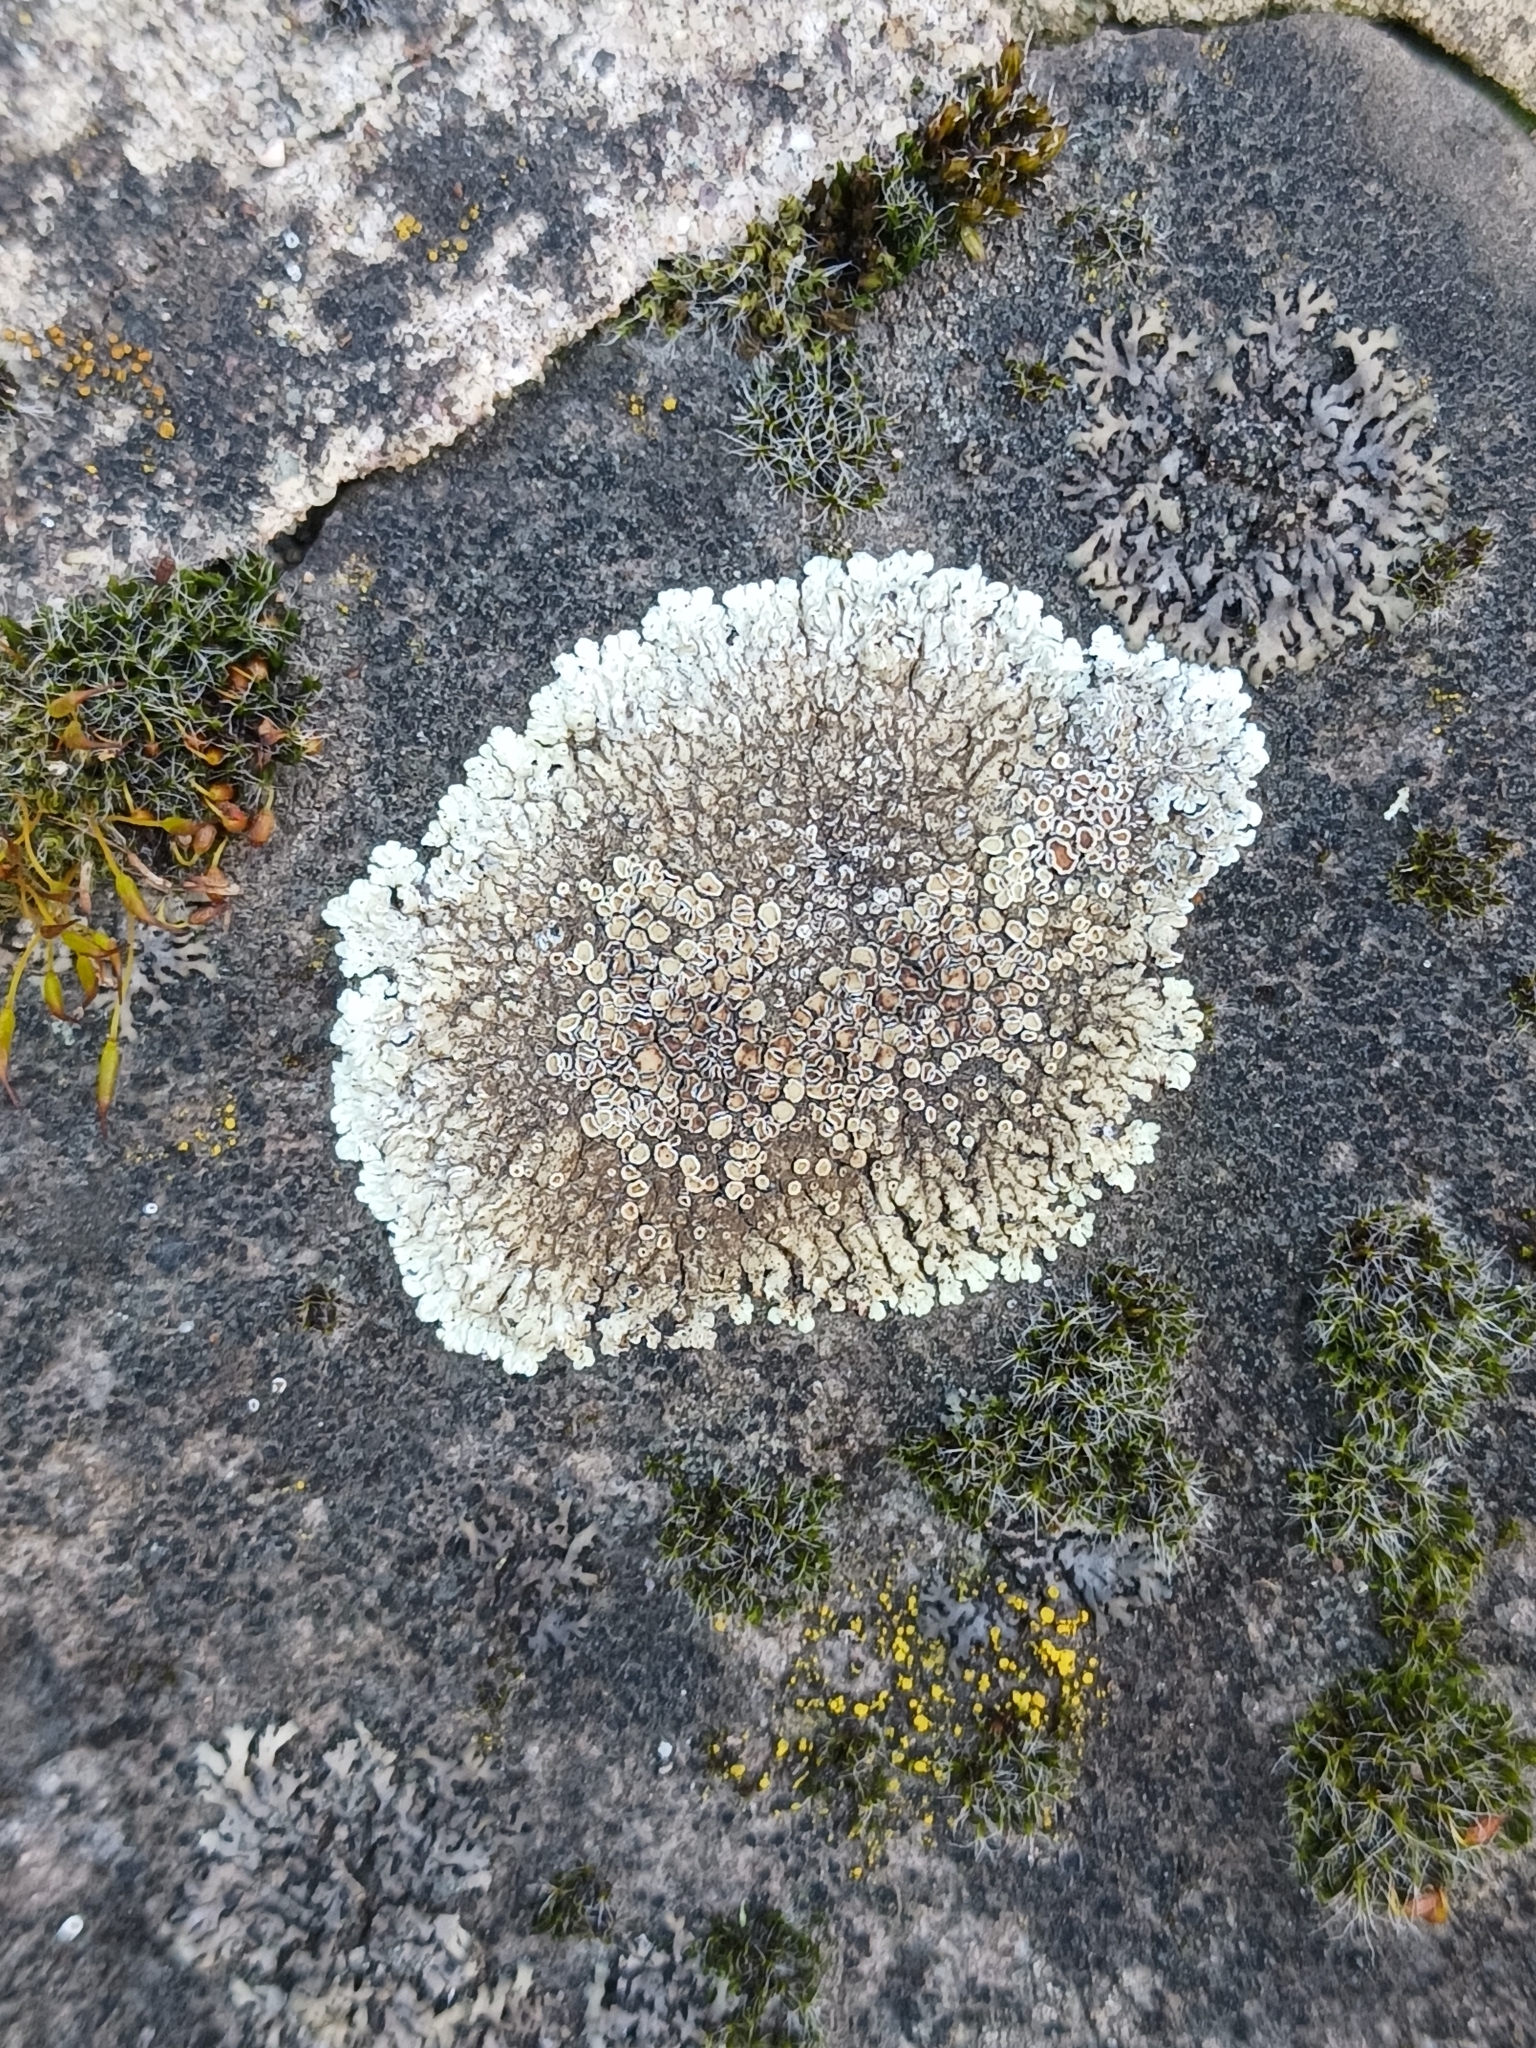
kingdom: Fungi
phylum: Ascomycota
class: Lecanoromycetes
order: Lecanorales
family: Lecanoraceae
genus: Protoparmeliopsis
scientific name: Protoparmeliopsis muralis
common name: Stonewall rim lichen
